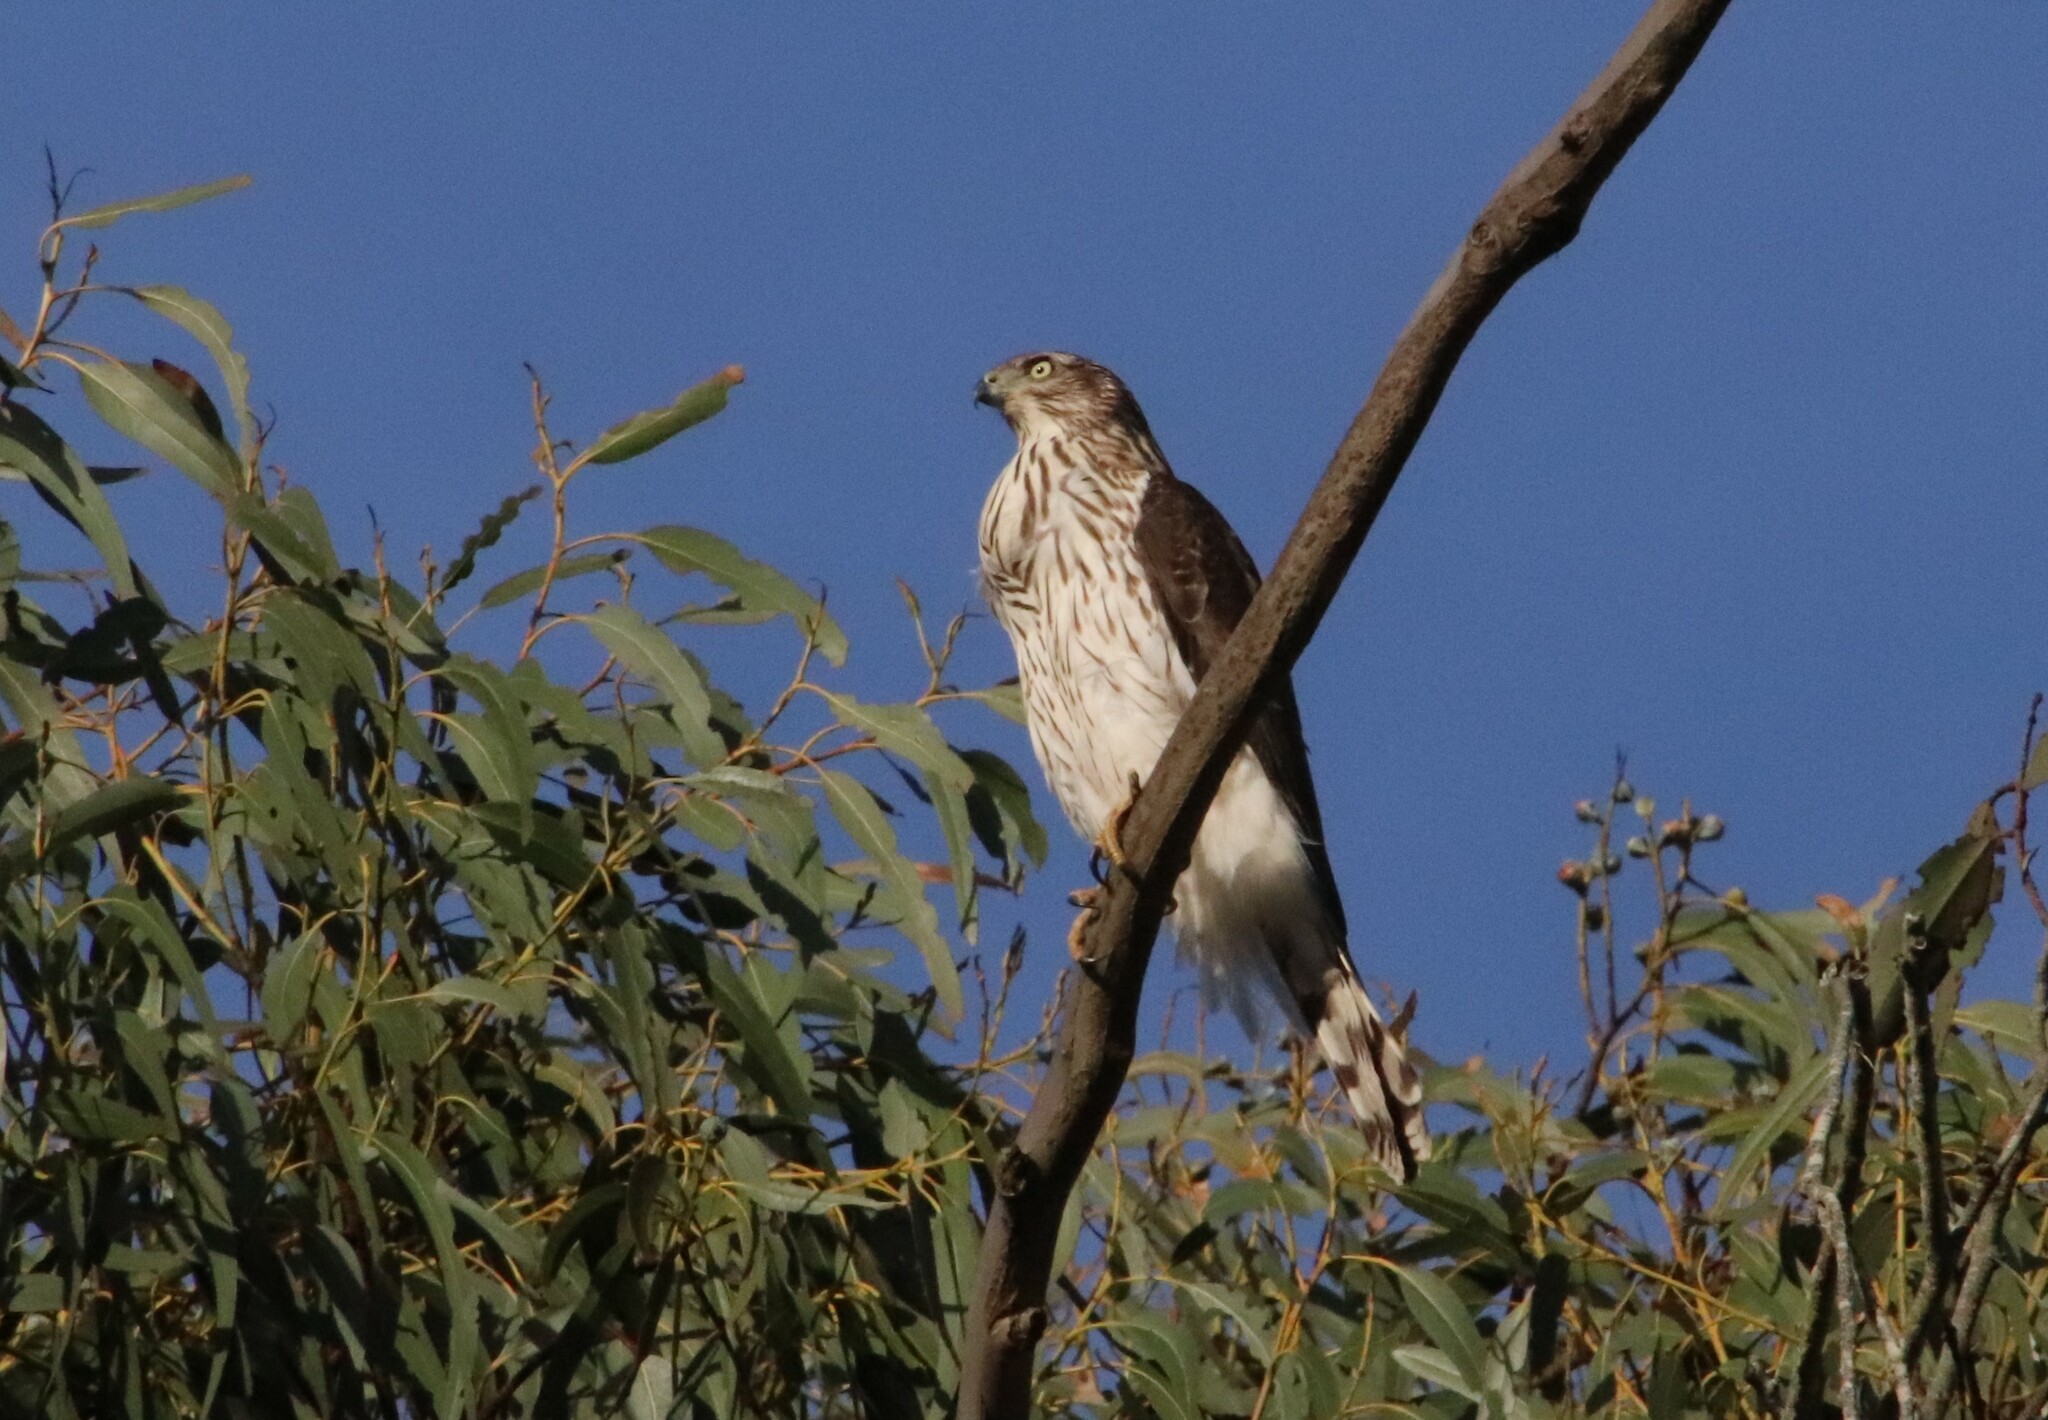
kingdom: Animalia
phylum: Chordata
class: Aves
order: Accipitriformes
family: Accipitridae
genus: Accipiter
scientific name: Accipiter cooperii
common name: Cooper's hawk
